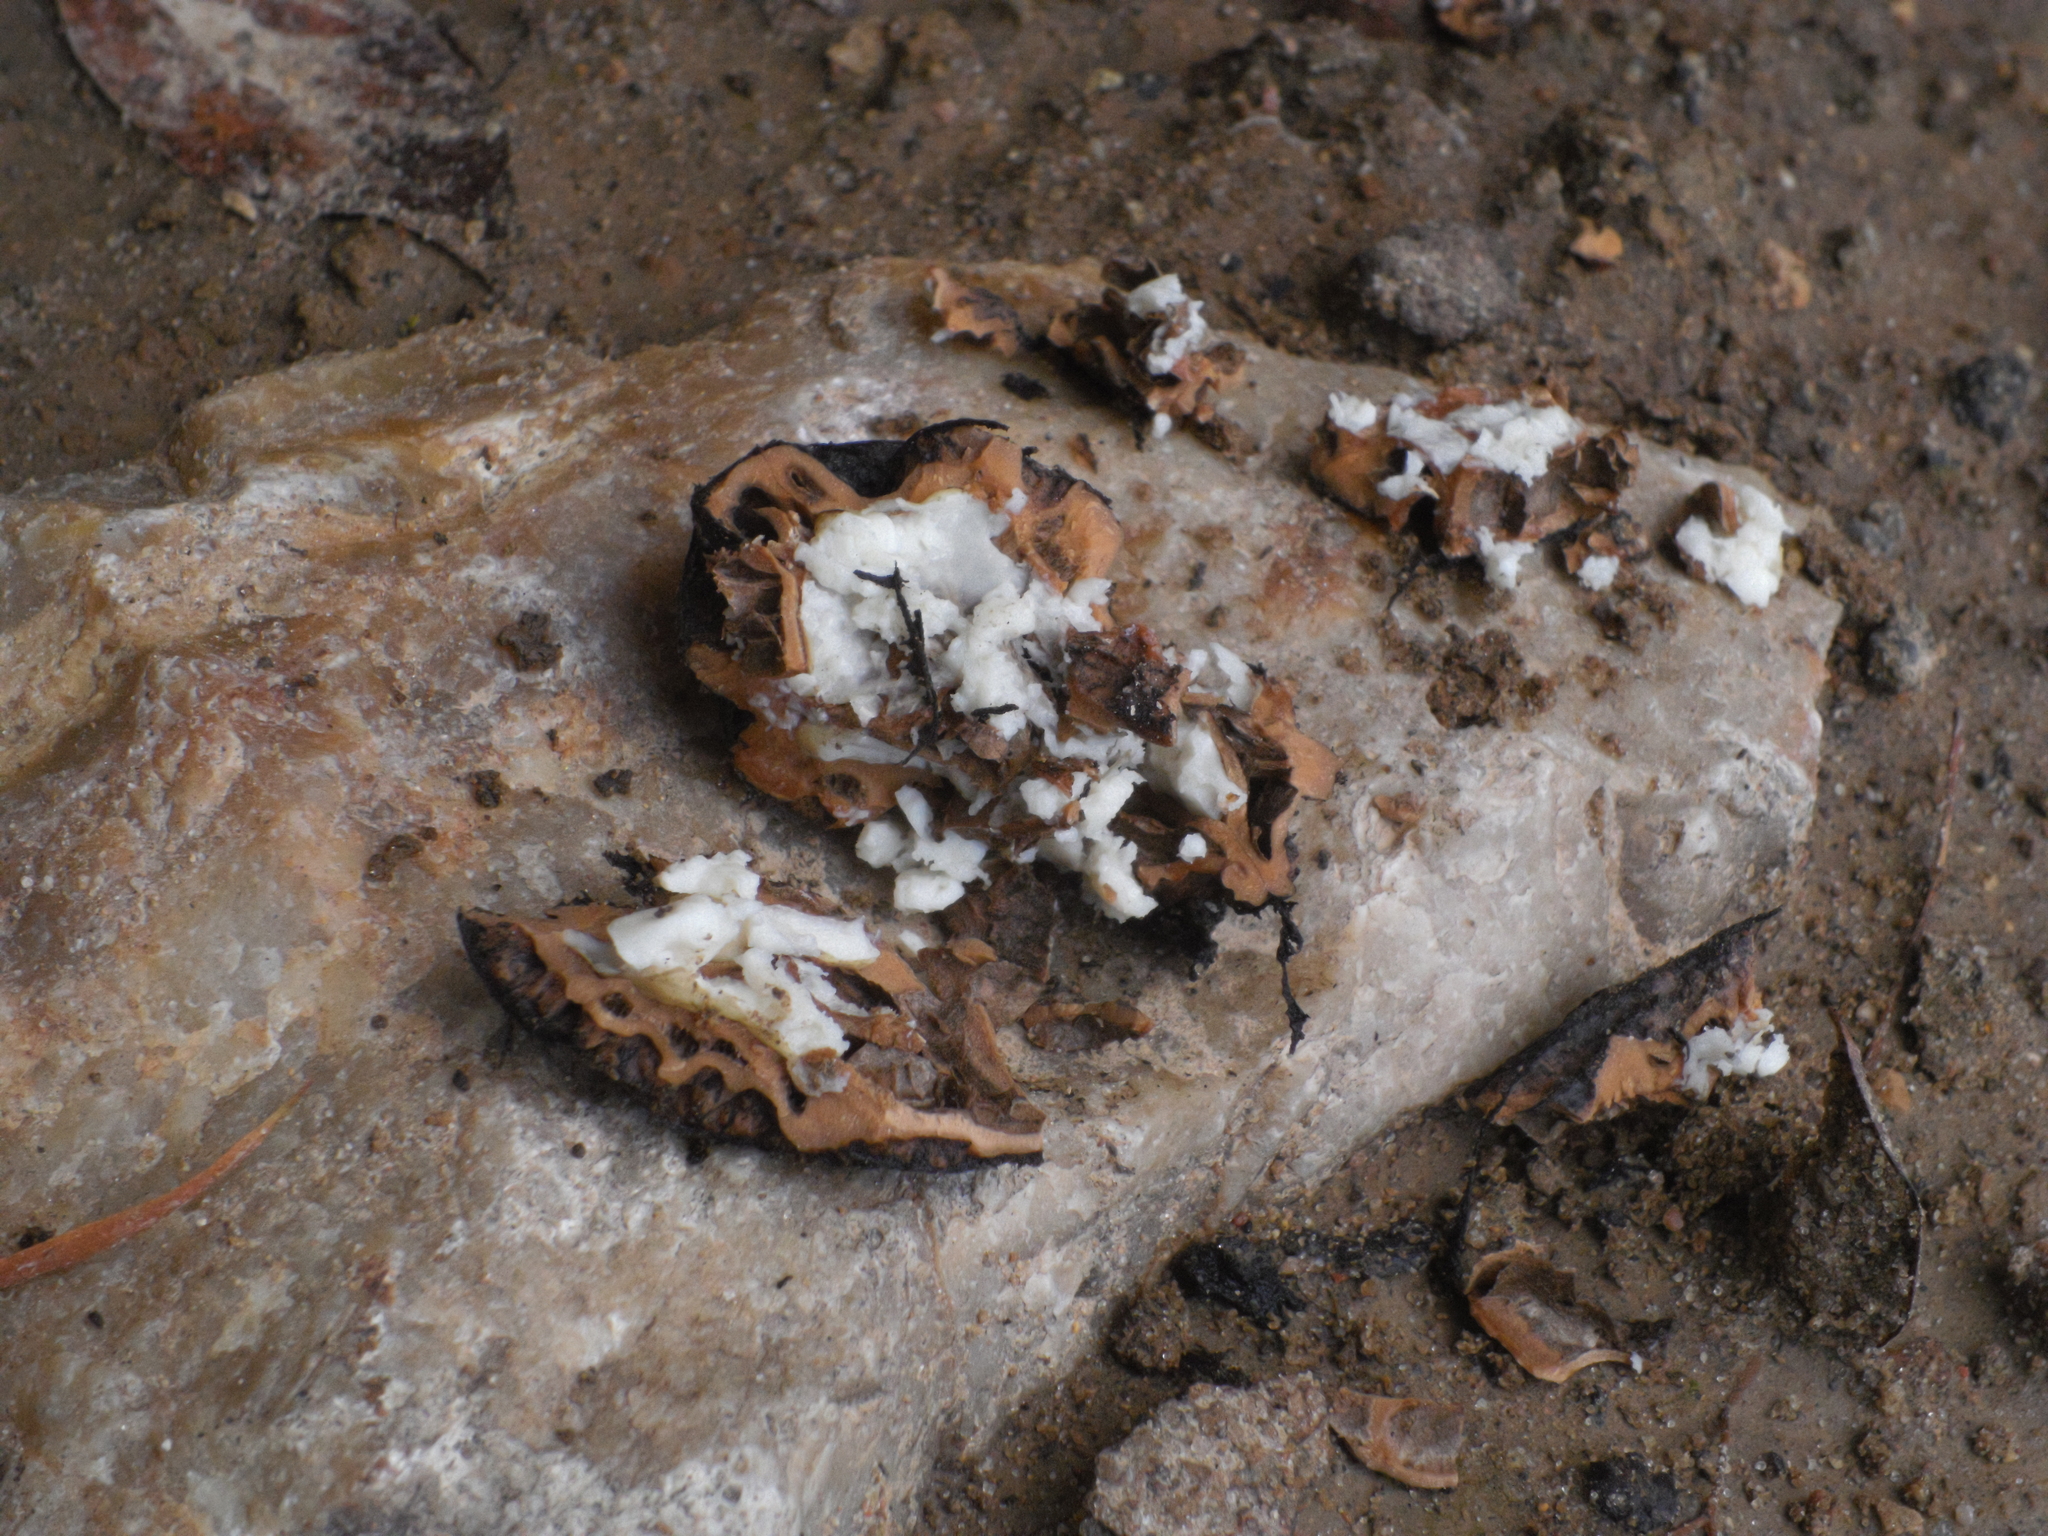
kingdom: Plantae
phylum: Tracheophyta
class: Magnoliopsida
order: Fagales
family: Juglandaceae
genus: Juglans
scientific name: Juglans mandshurica
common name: Manchurian walnut
